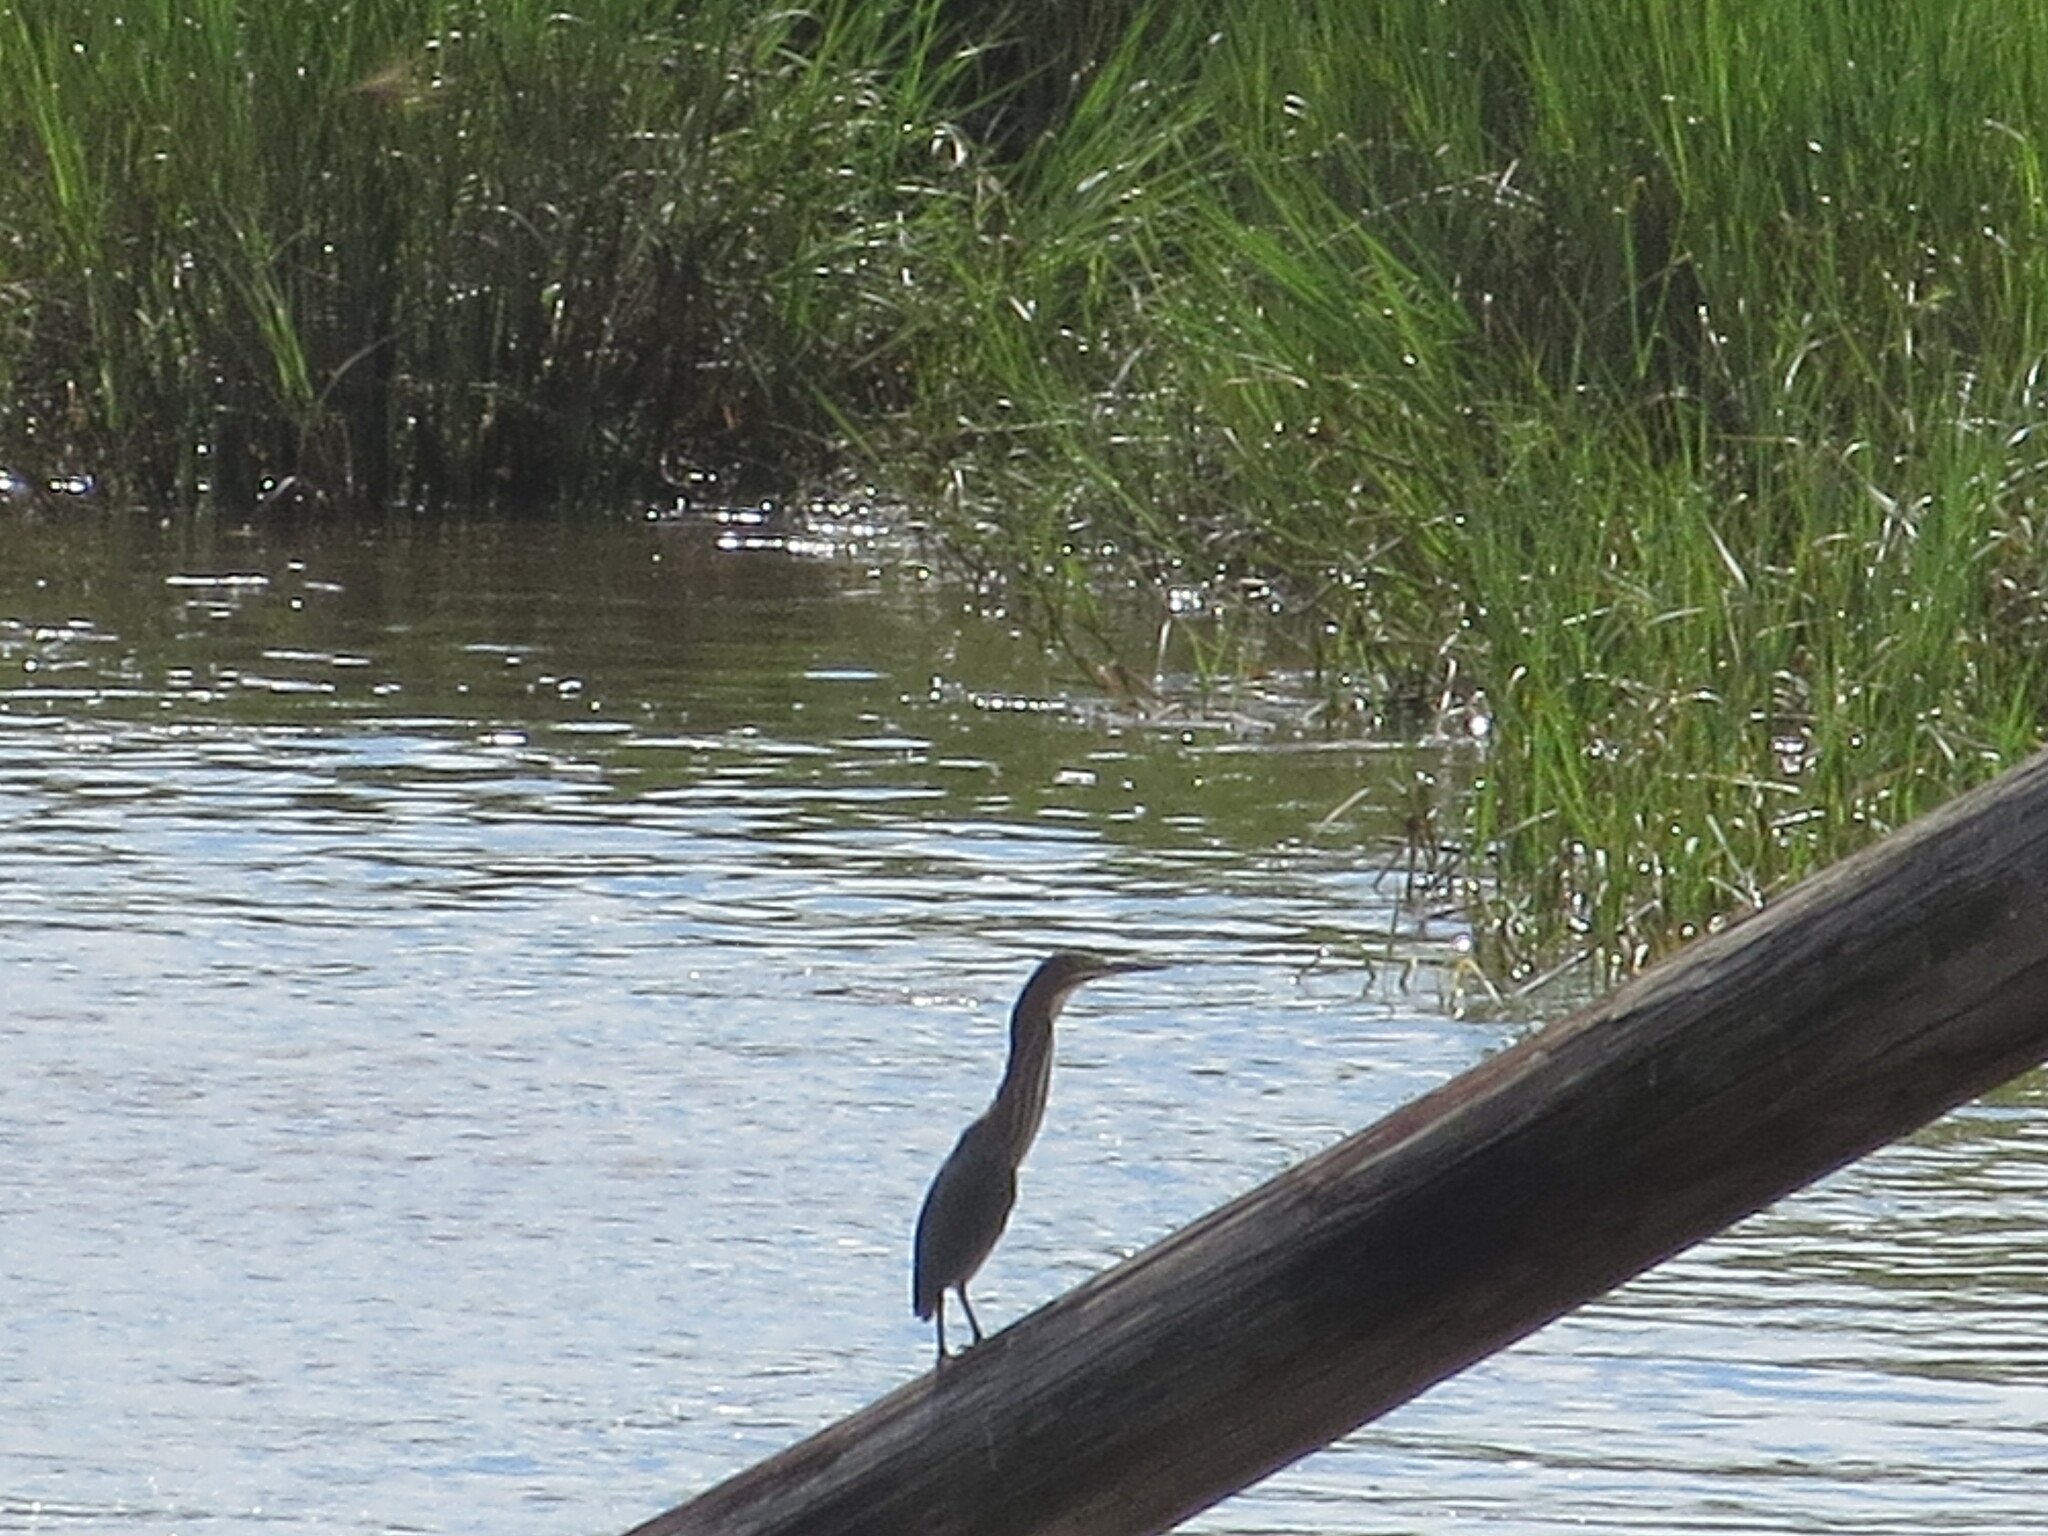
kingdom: Animalia
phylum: Chordata
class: Aves
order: Pelecaniformes
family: Ardeidae
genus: Butorides
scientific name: Butorides virescens
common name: Green heron
